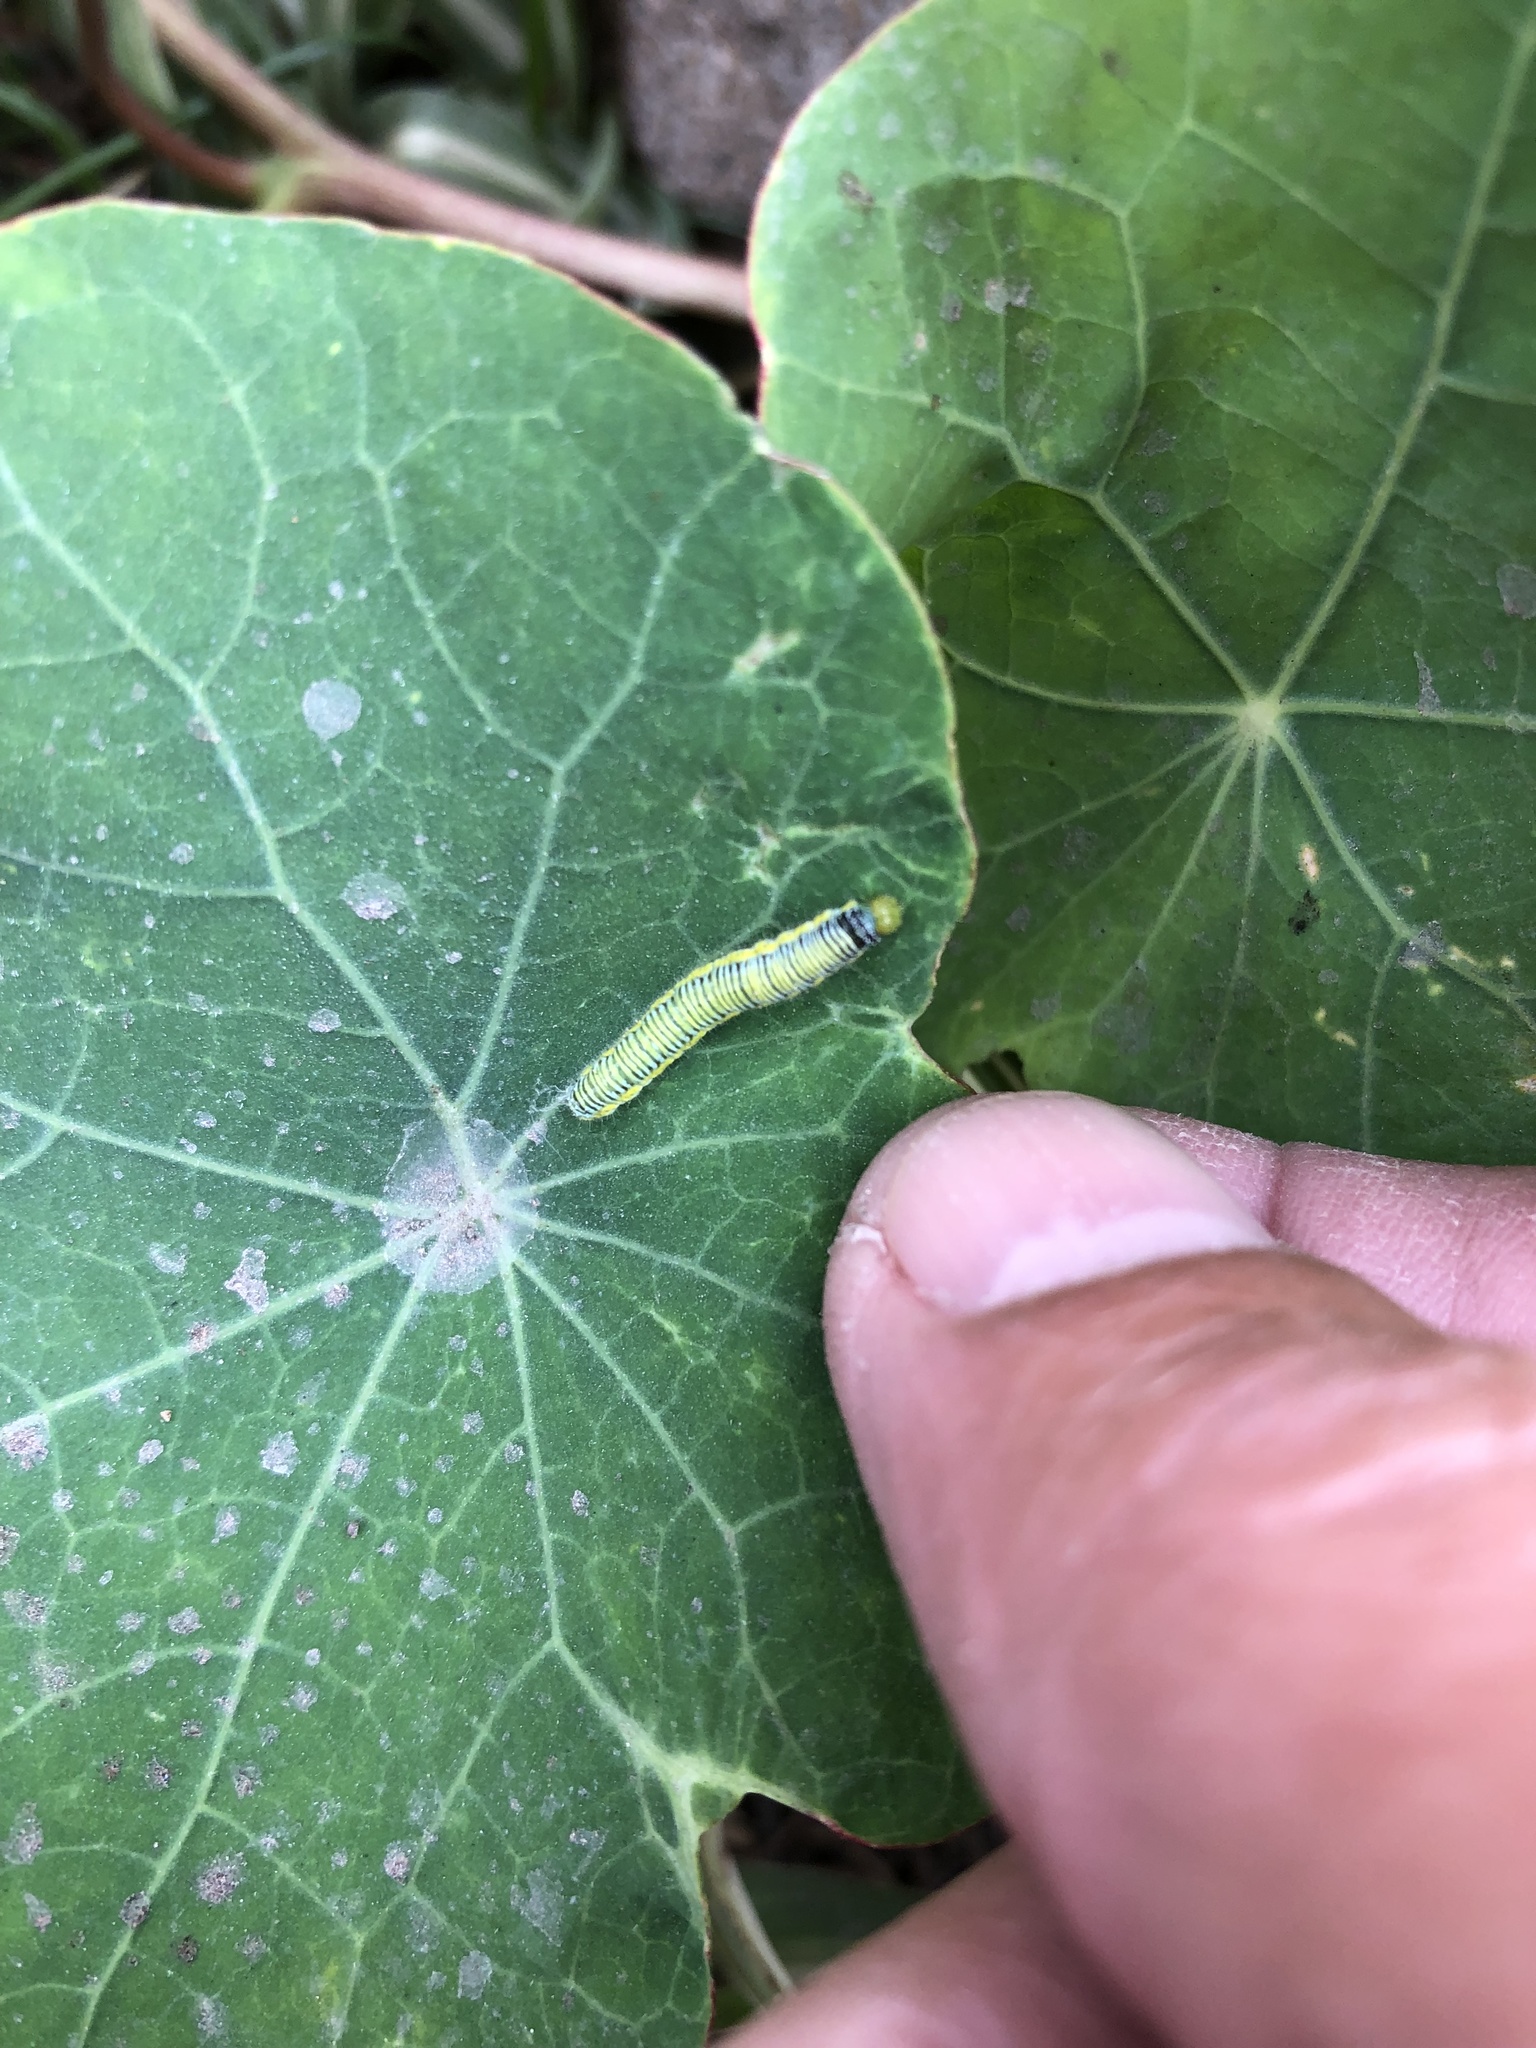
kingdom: Animalia
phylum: Arthropoda
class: Insecta
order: Lepidoptera
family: Pieridae
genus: Leptophobia
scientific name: Leptophobia aripa
